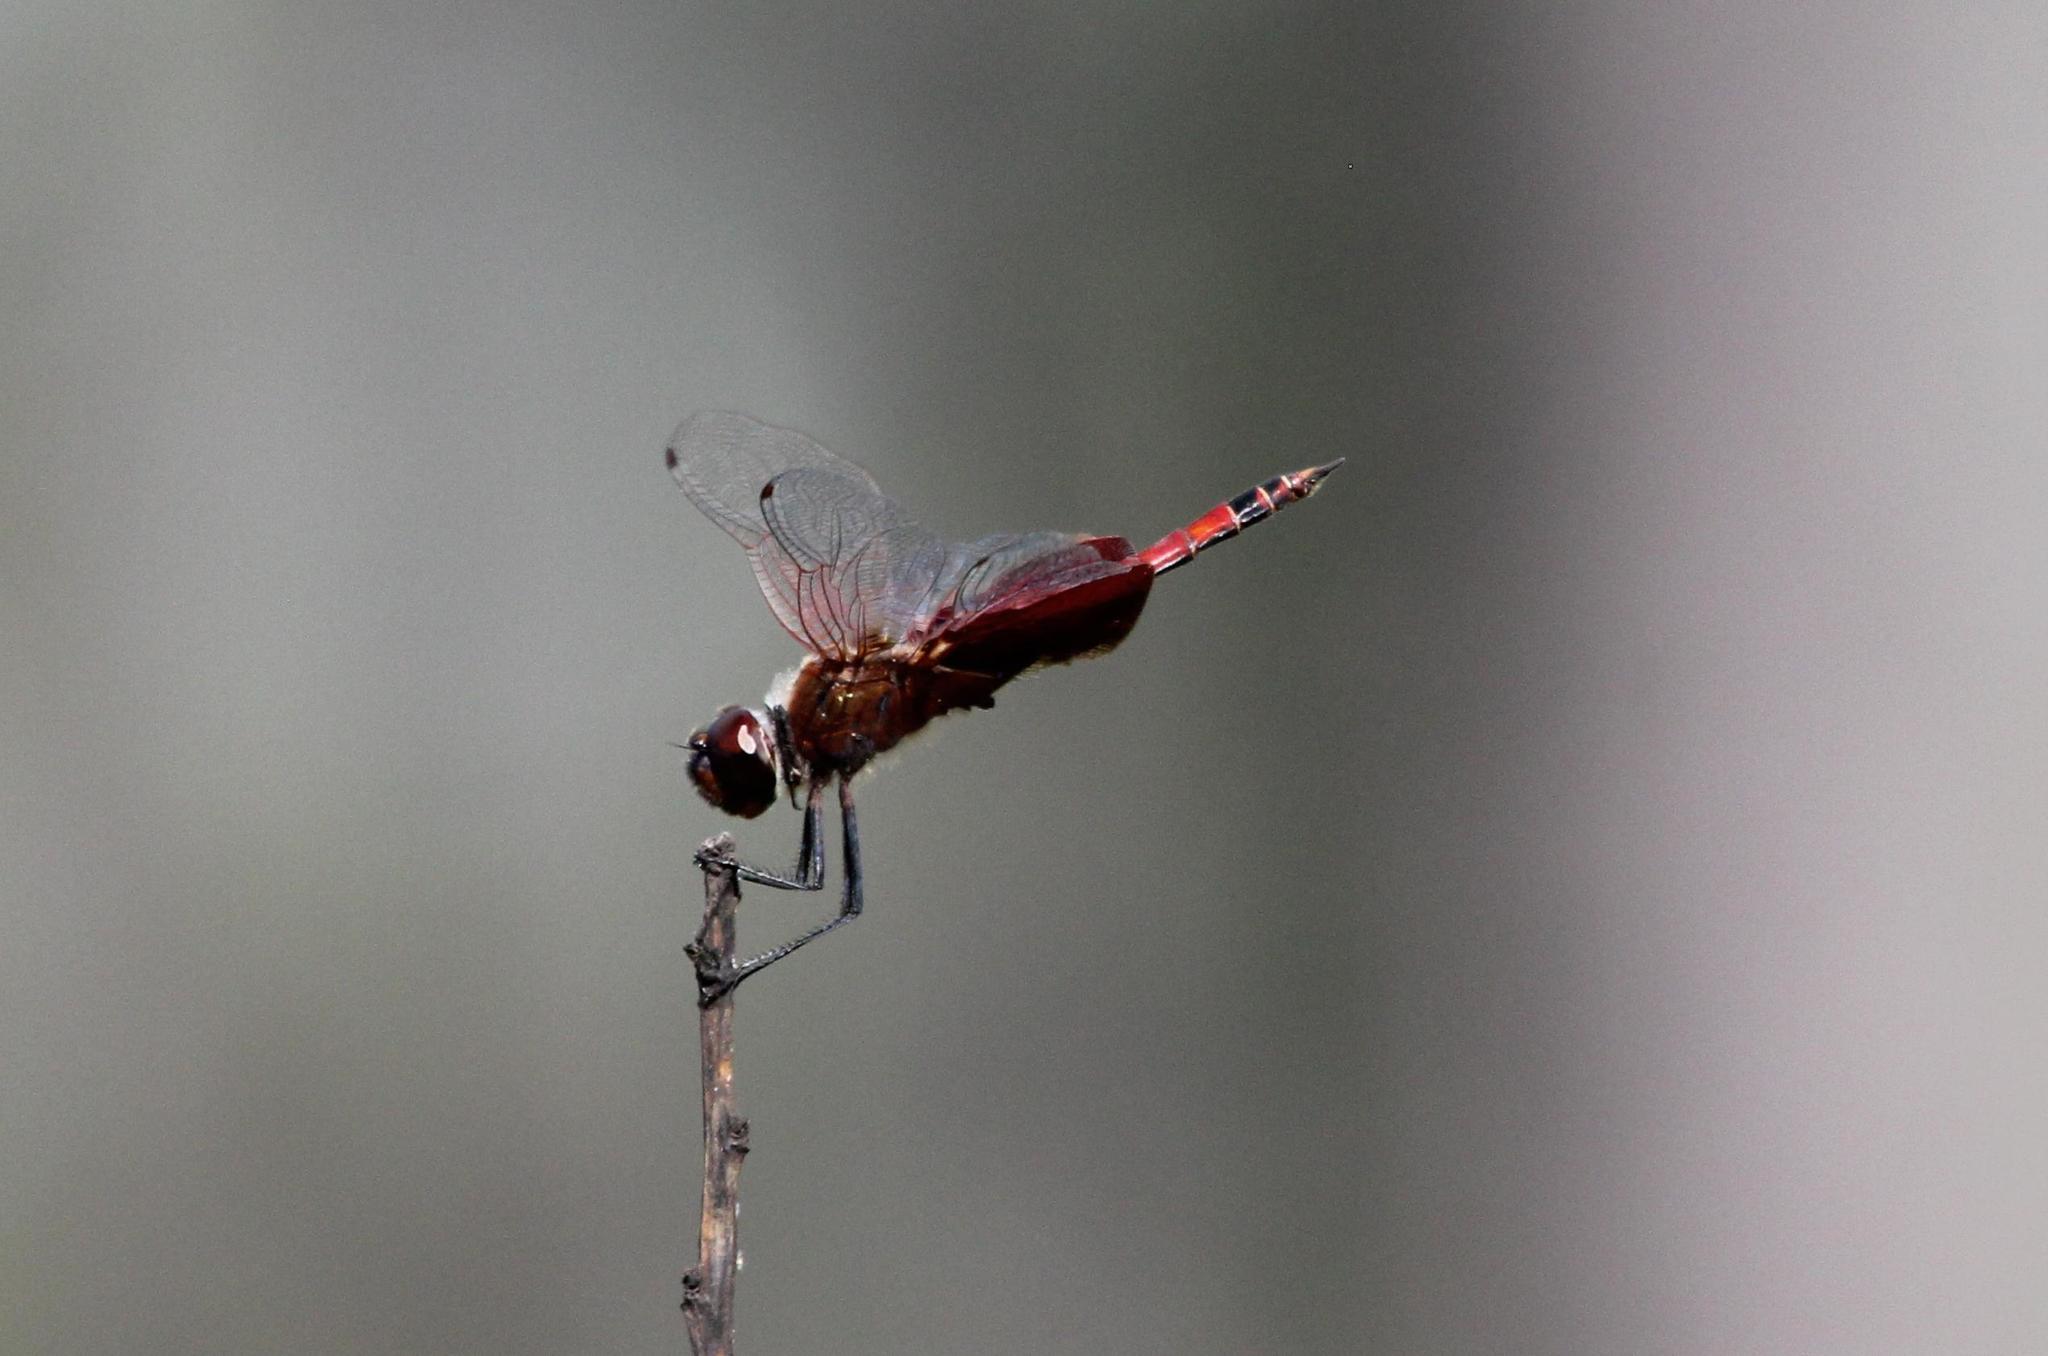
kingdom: Animalia
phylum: Arthropoda
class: Insecta
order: Odonata
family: Libellulidae
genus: Tramea
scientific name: Tramea carolina
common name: Carolina saddlebags
